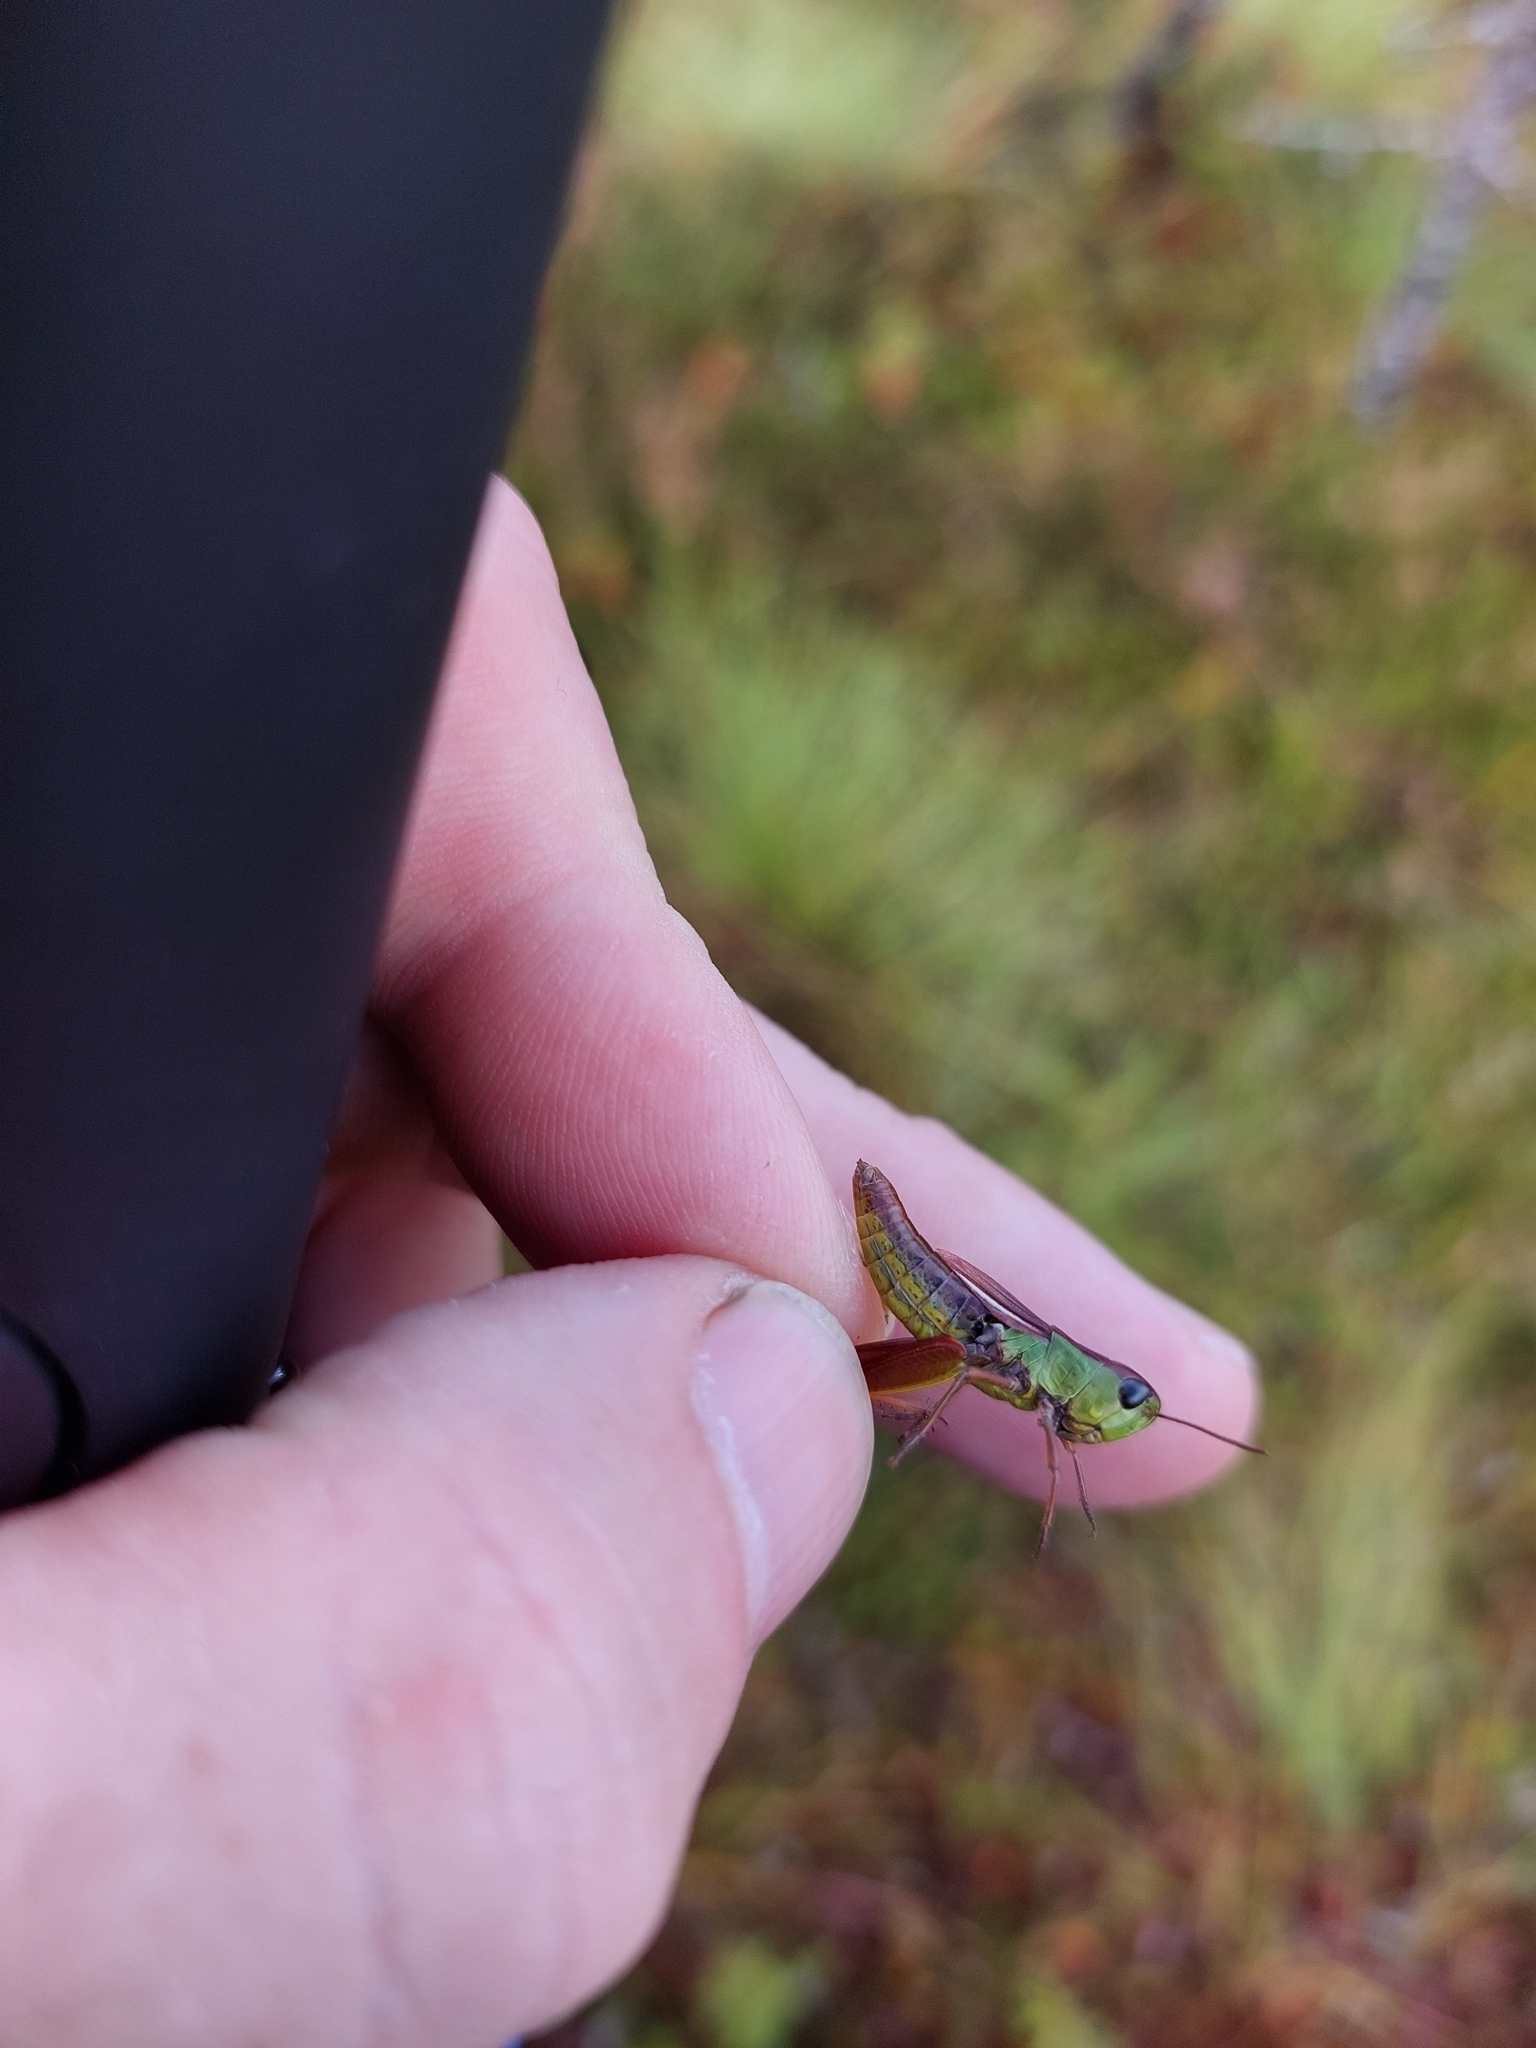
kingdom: Animalia
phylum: Arthropoda
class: Insecta
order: Orthoptera
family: Acrididae
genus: Pseudochorthippus
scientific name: Pseudochorthippus parallelus
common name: Meadow grasshopper
